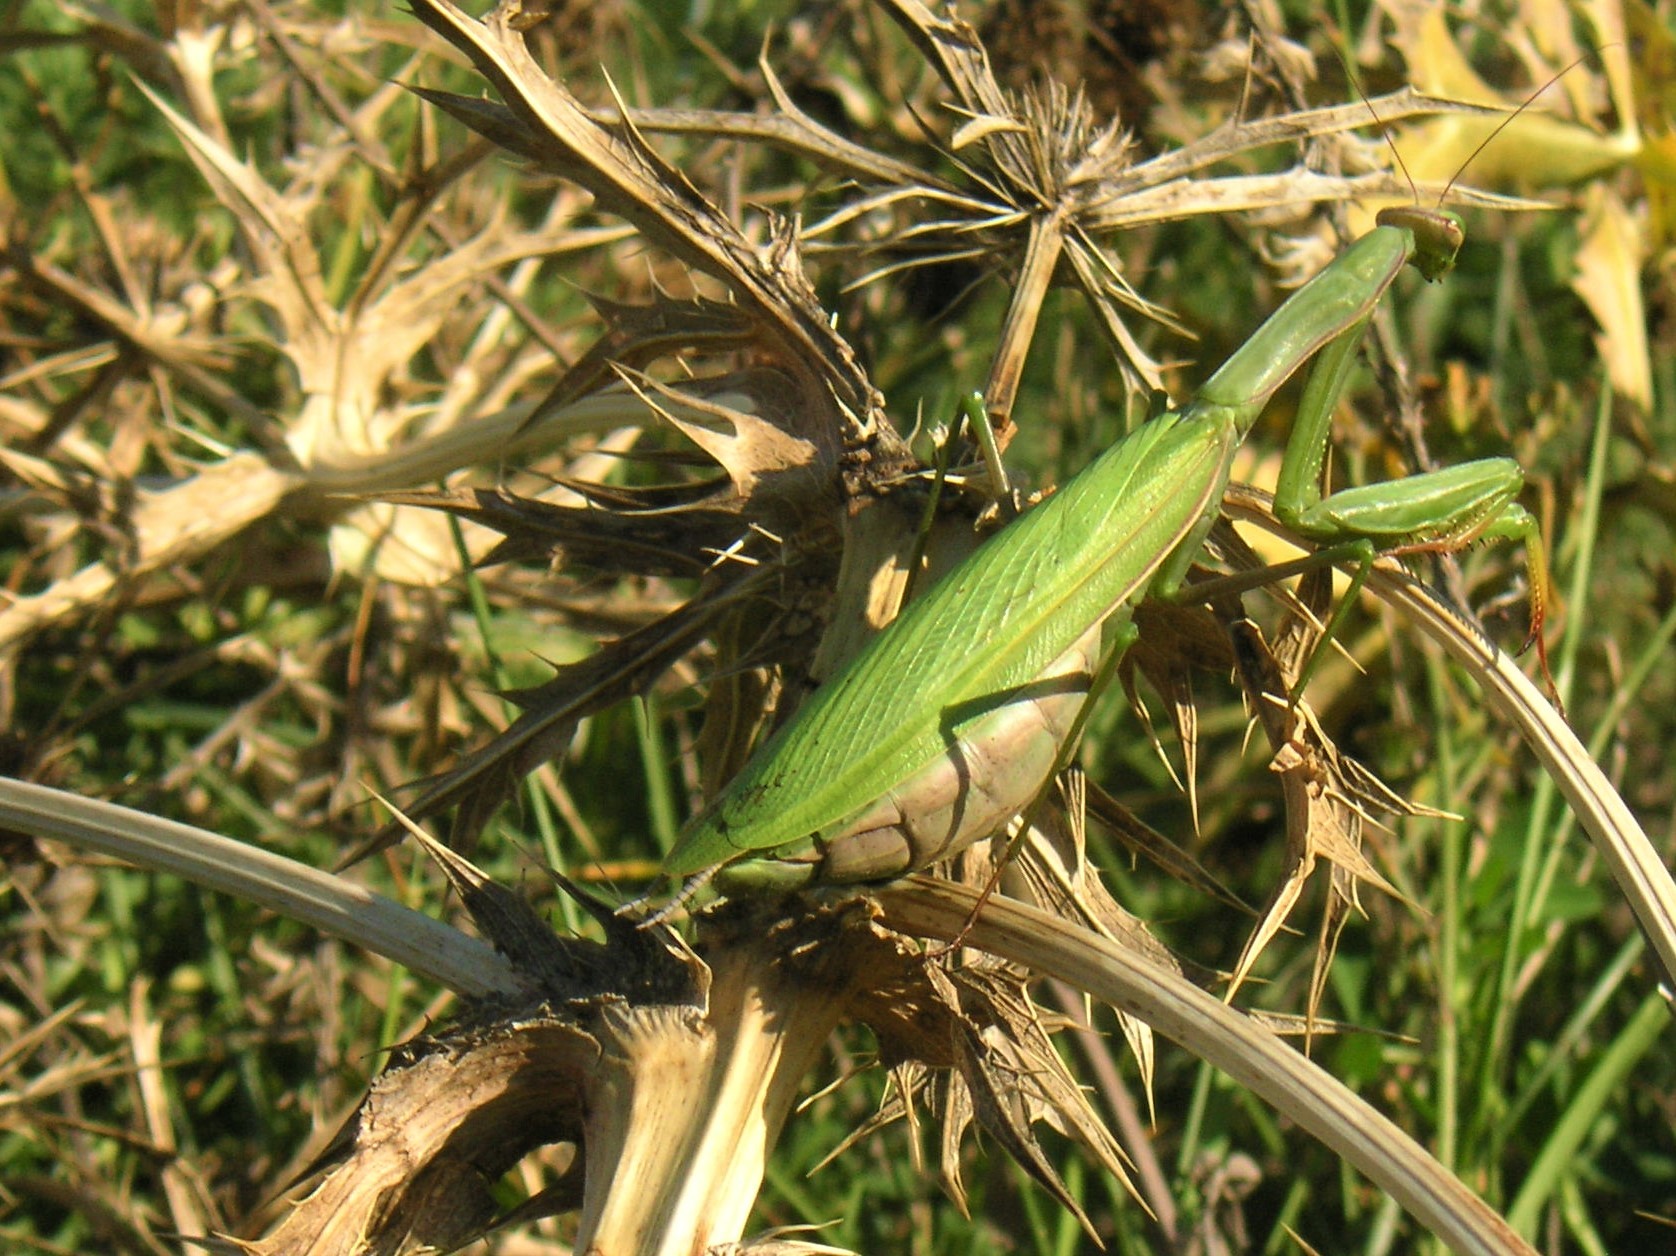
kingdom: Animalia
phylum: Arthropoda
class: Insecta
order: Mantodea
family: Mantidae
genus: Mantis
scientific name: Mantis religiosa
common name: Praying mantis
